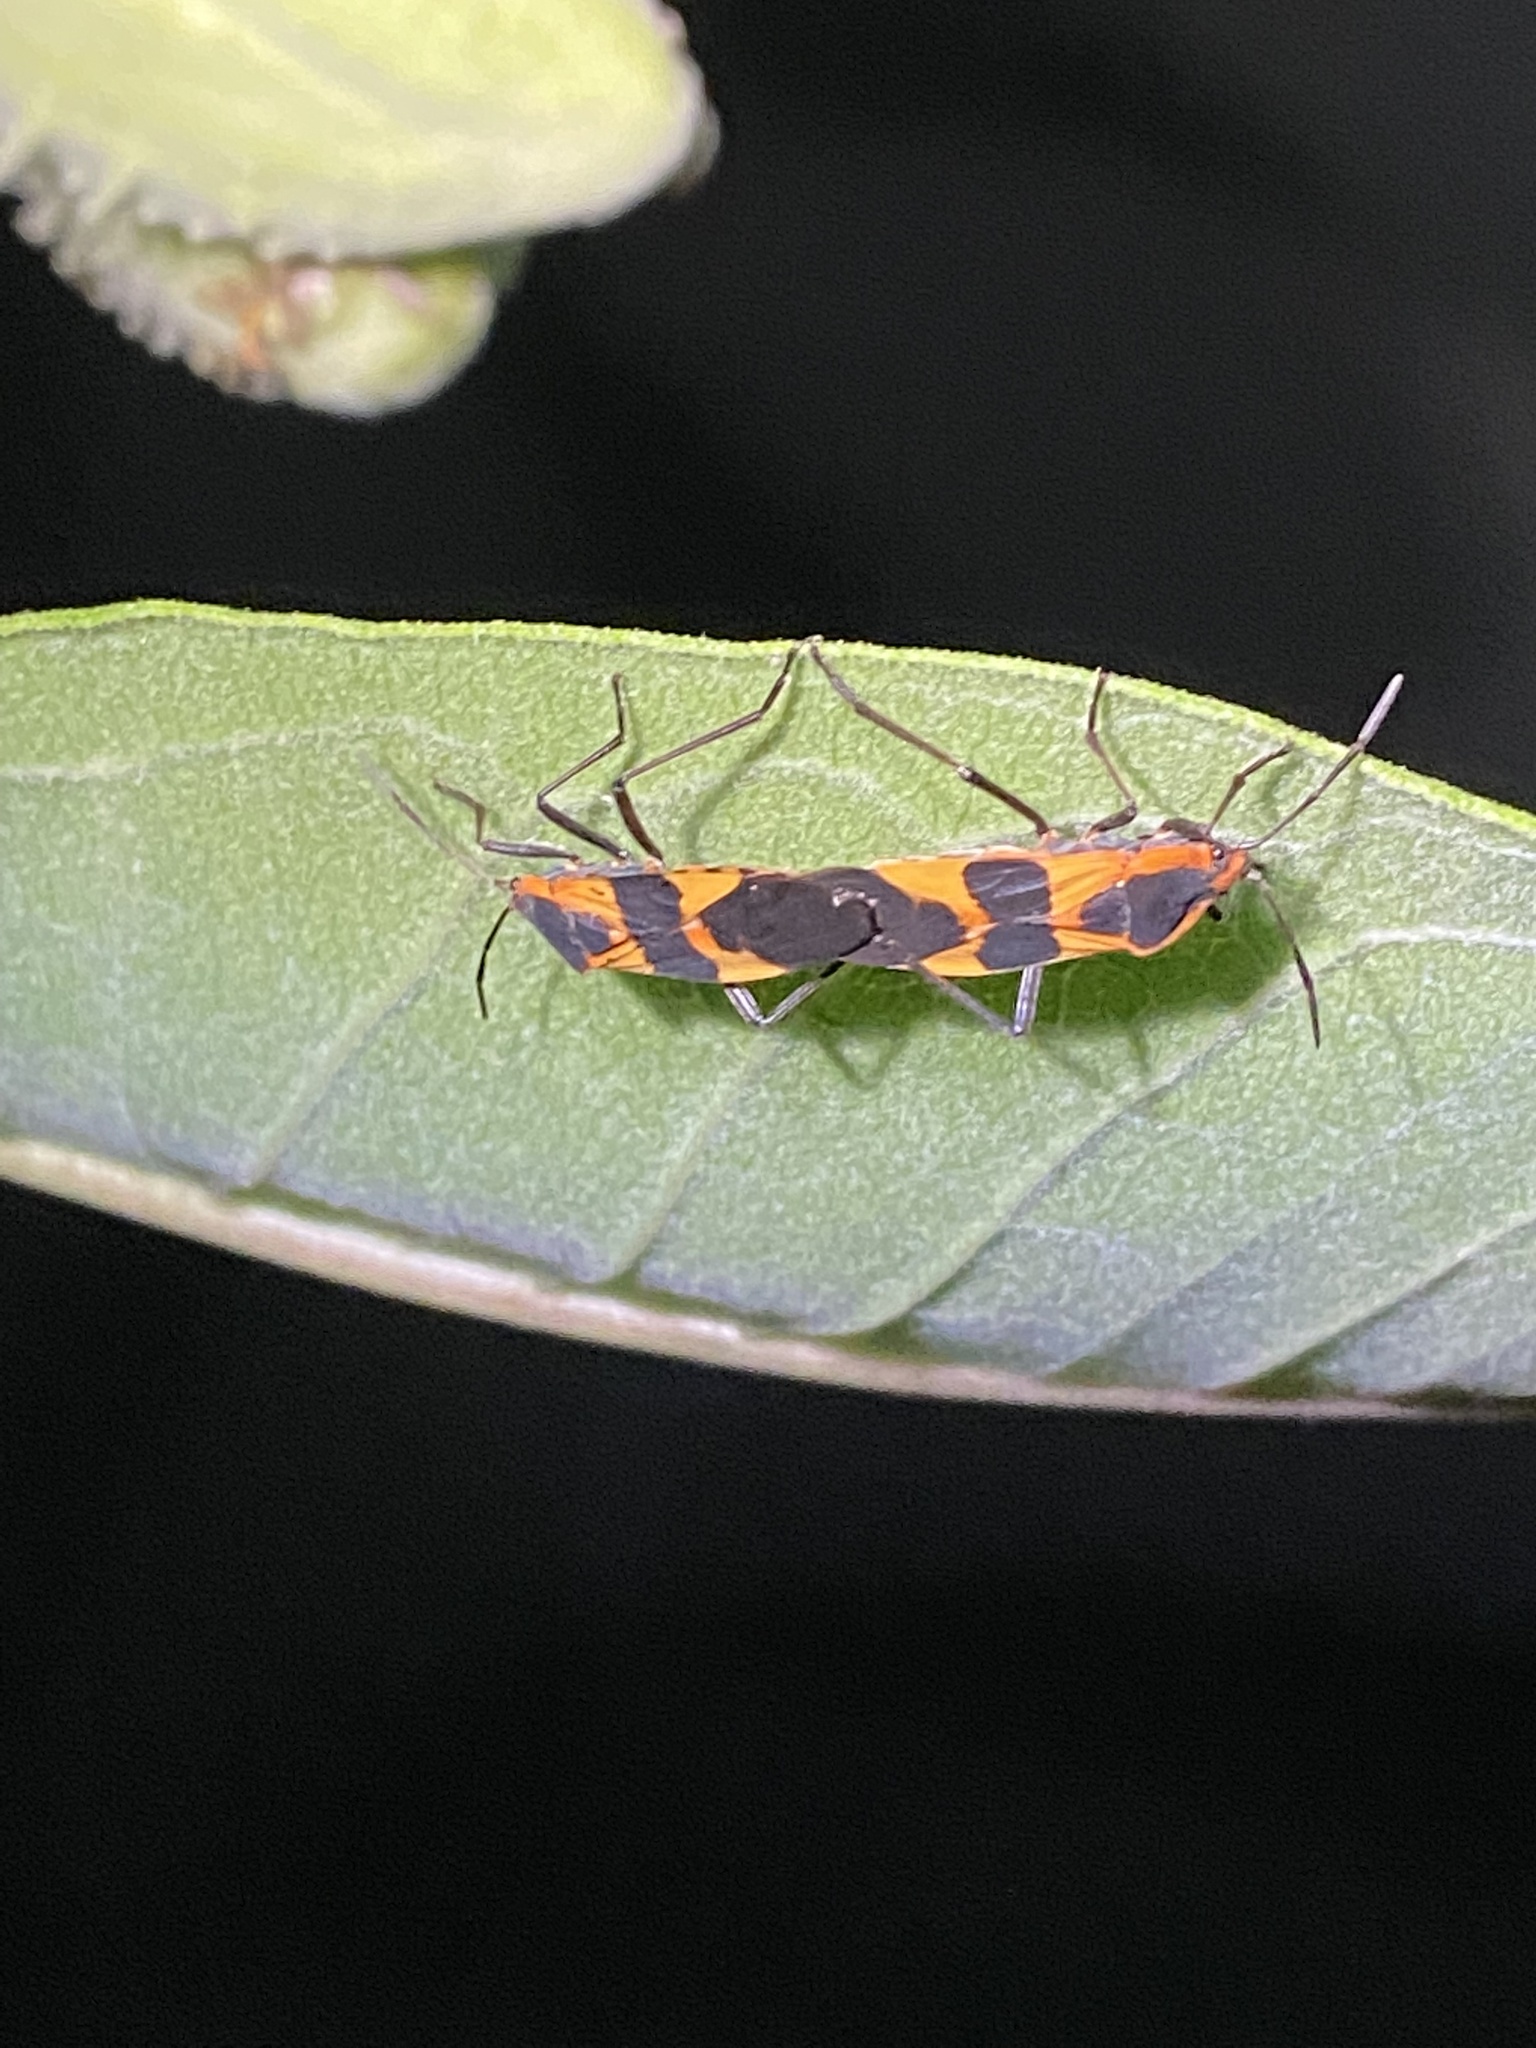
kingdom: Animalia
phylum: Arthropoda
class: Insecta
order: Hemiptera
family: Lygaeidae
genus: Oncopeltus
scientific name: Oncopeltus fasciatus
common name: Large milkweed bug
